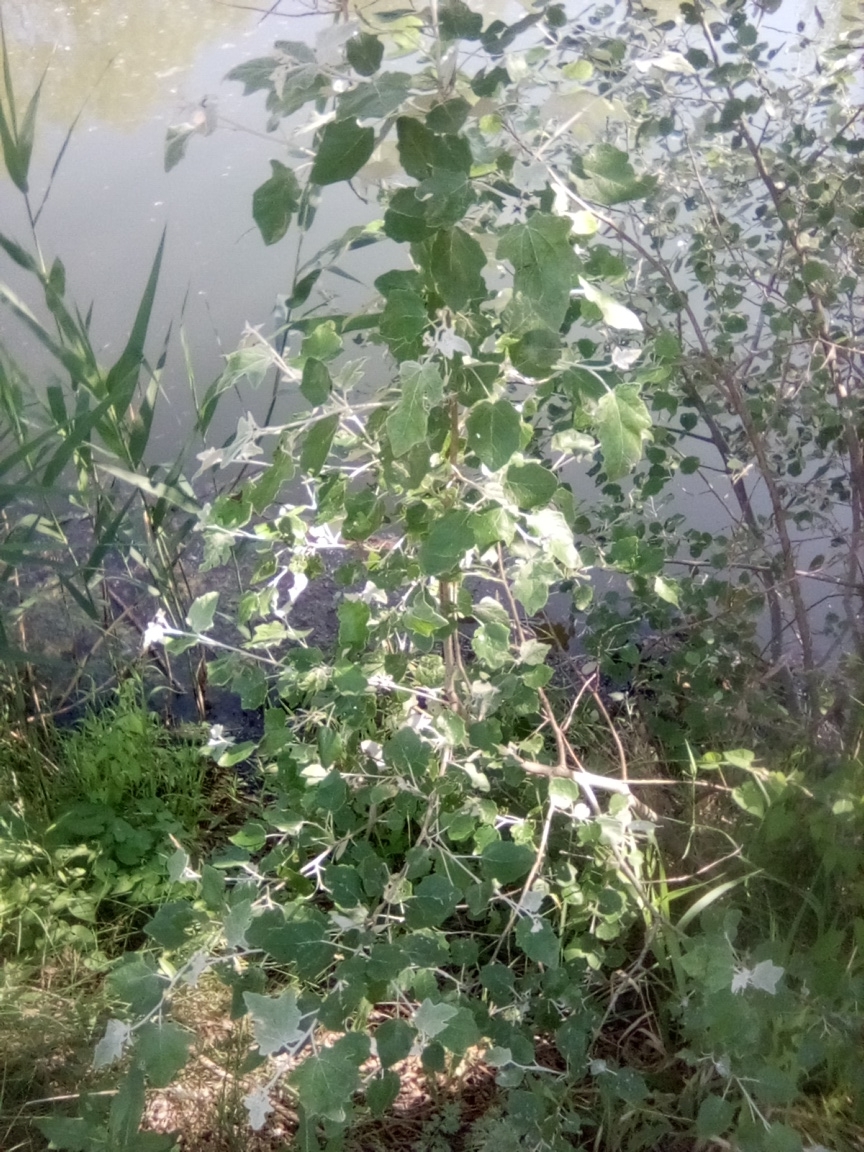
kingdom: Plantae
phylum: Tracheophyta
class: Magnoliopsida
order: Malpighiales
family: Salicaceae
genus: Populus
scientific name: Populus alba
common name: White poplar
